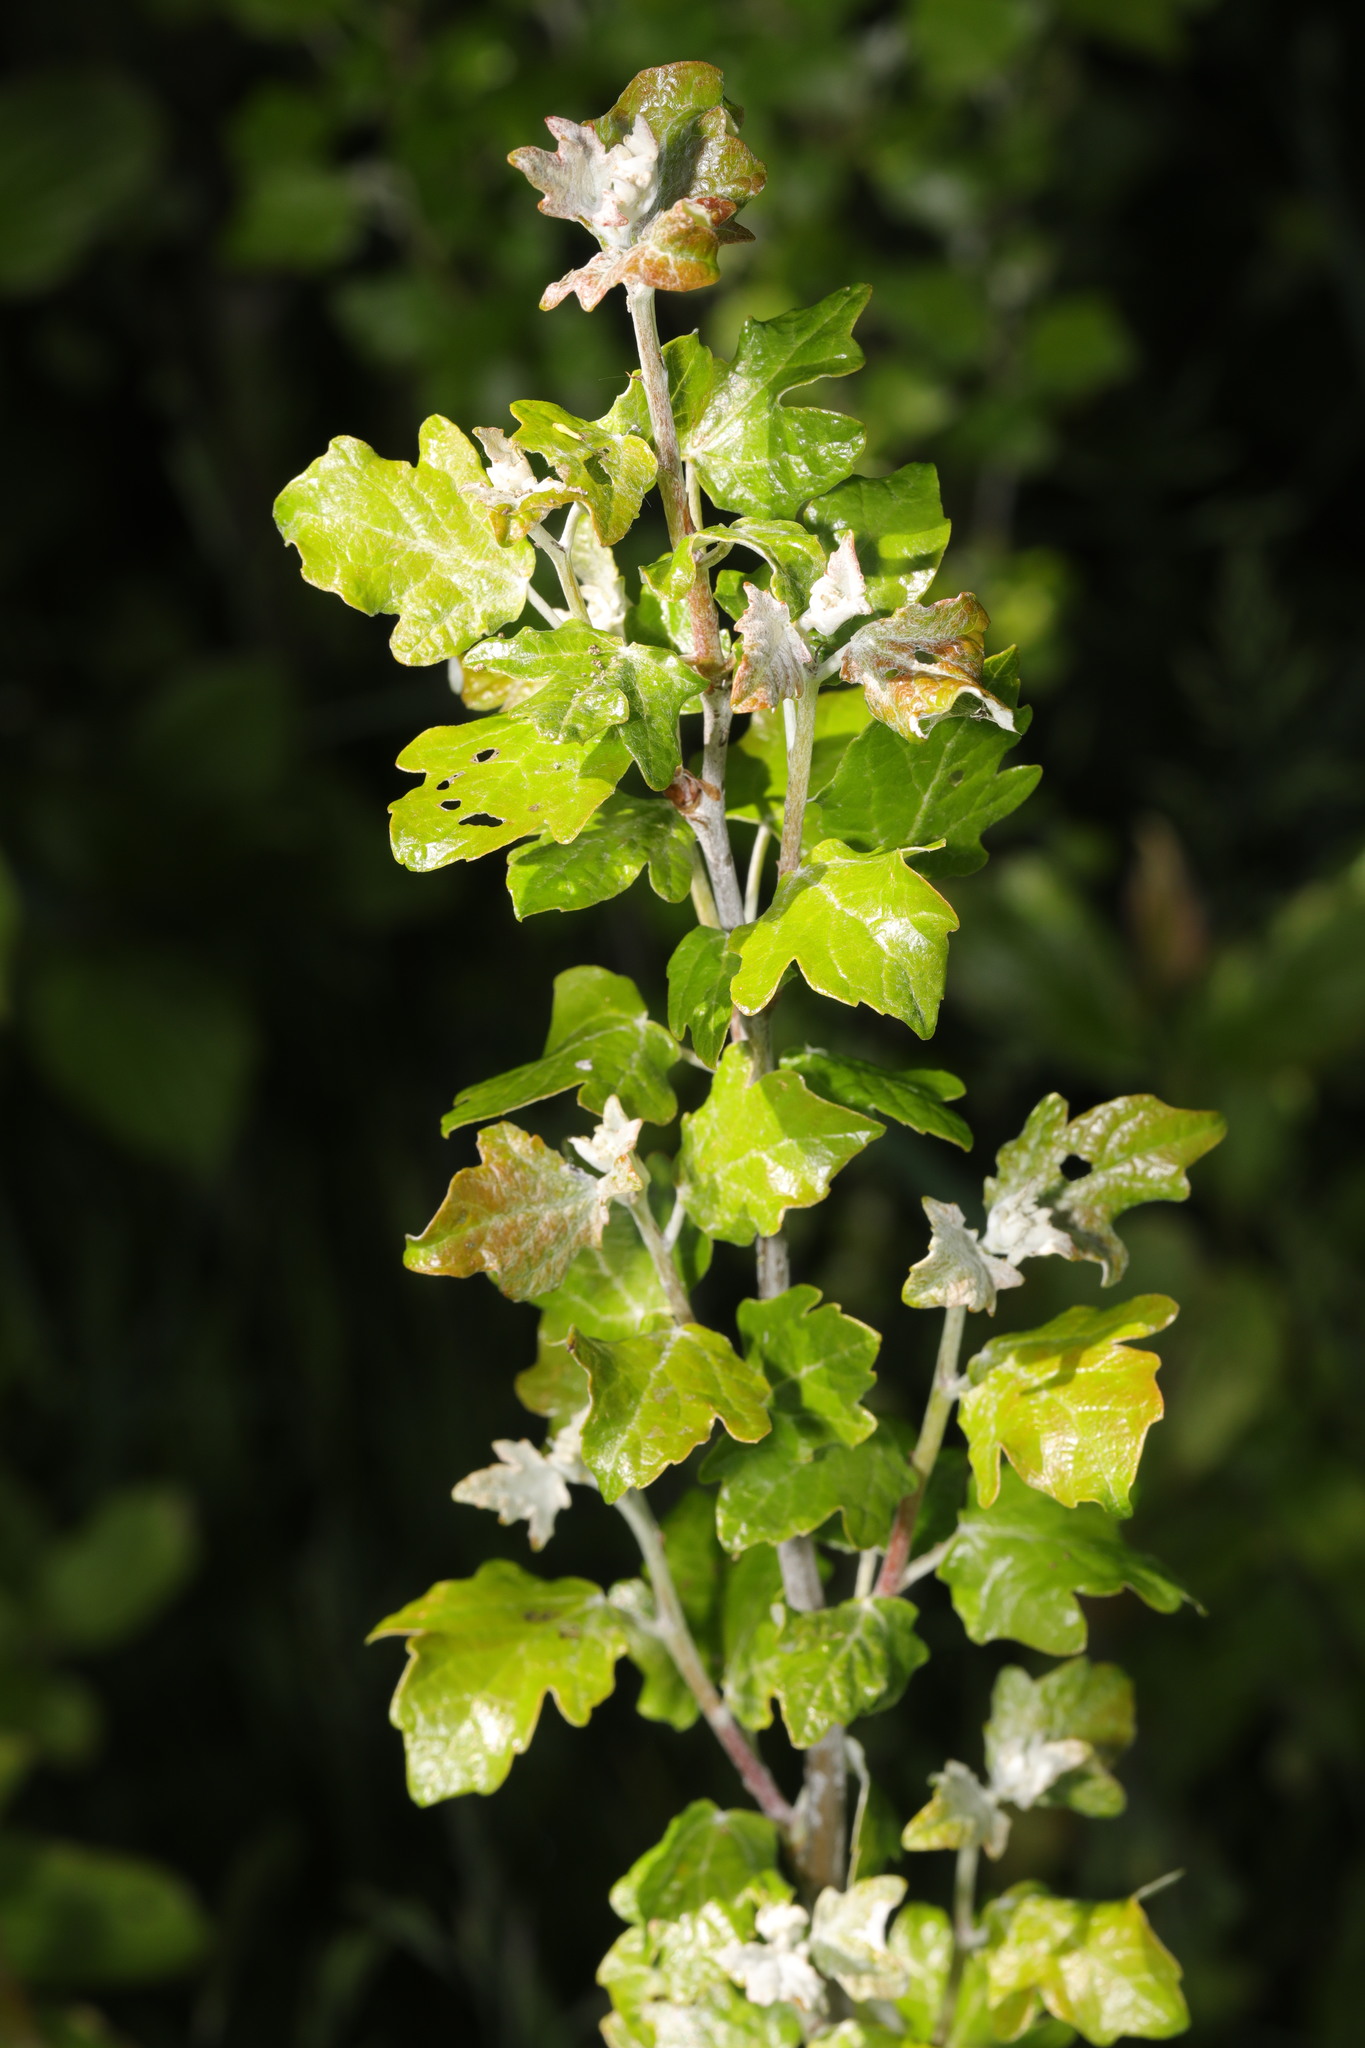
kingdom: Plantae
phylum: Tracheophyta
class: Magnoliopsida
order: Malpighiales
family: Salicaceae
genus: Populus
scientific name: Populus alba
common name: White poplar
